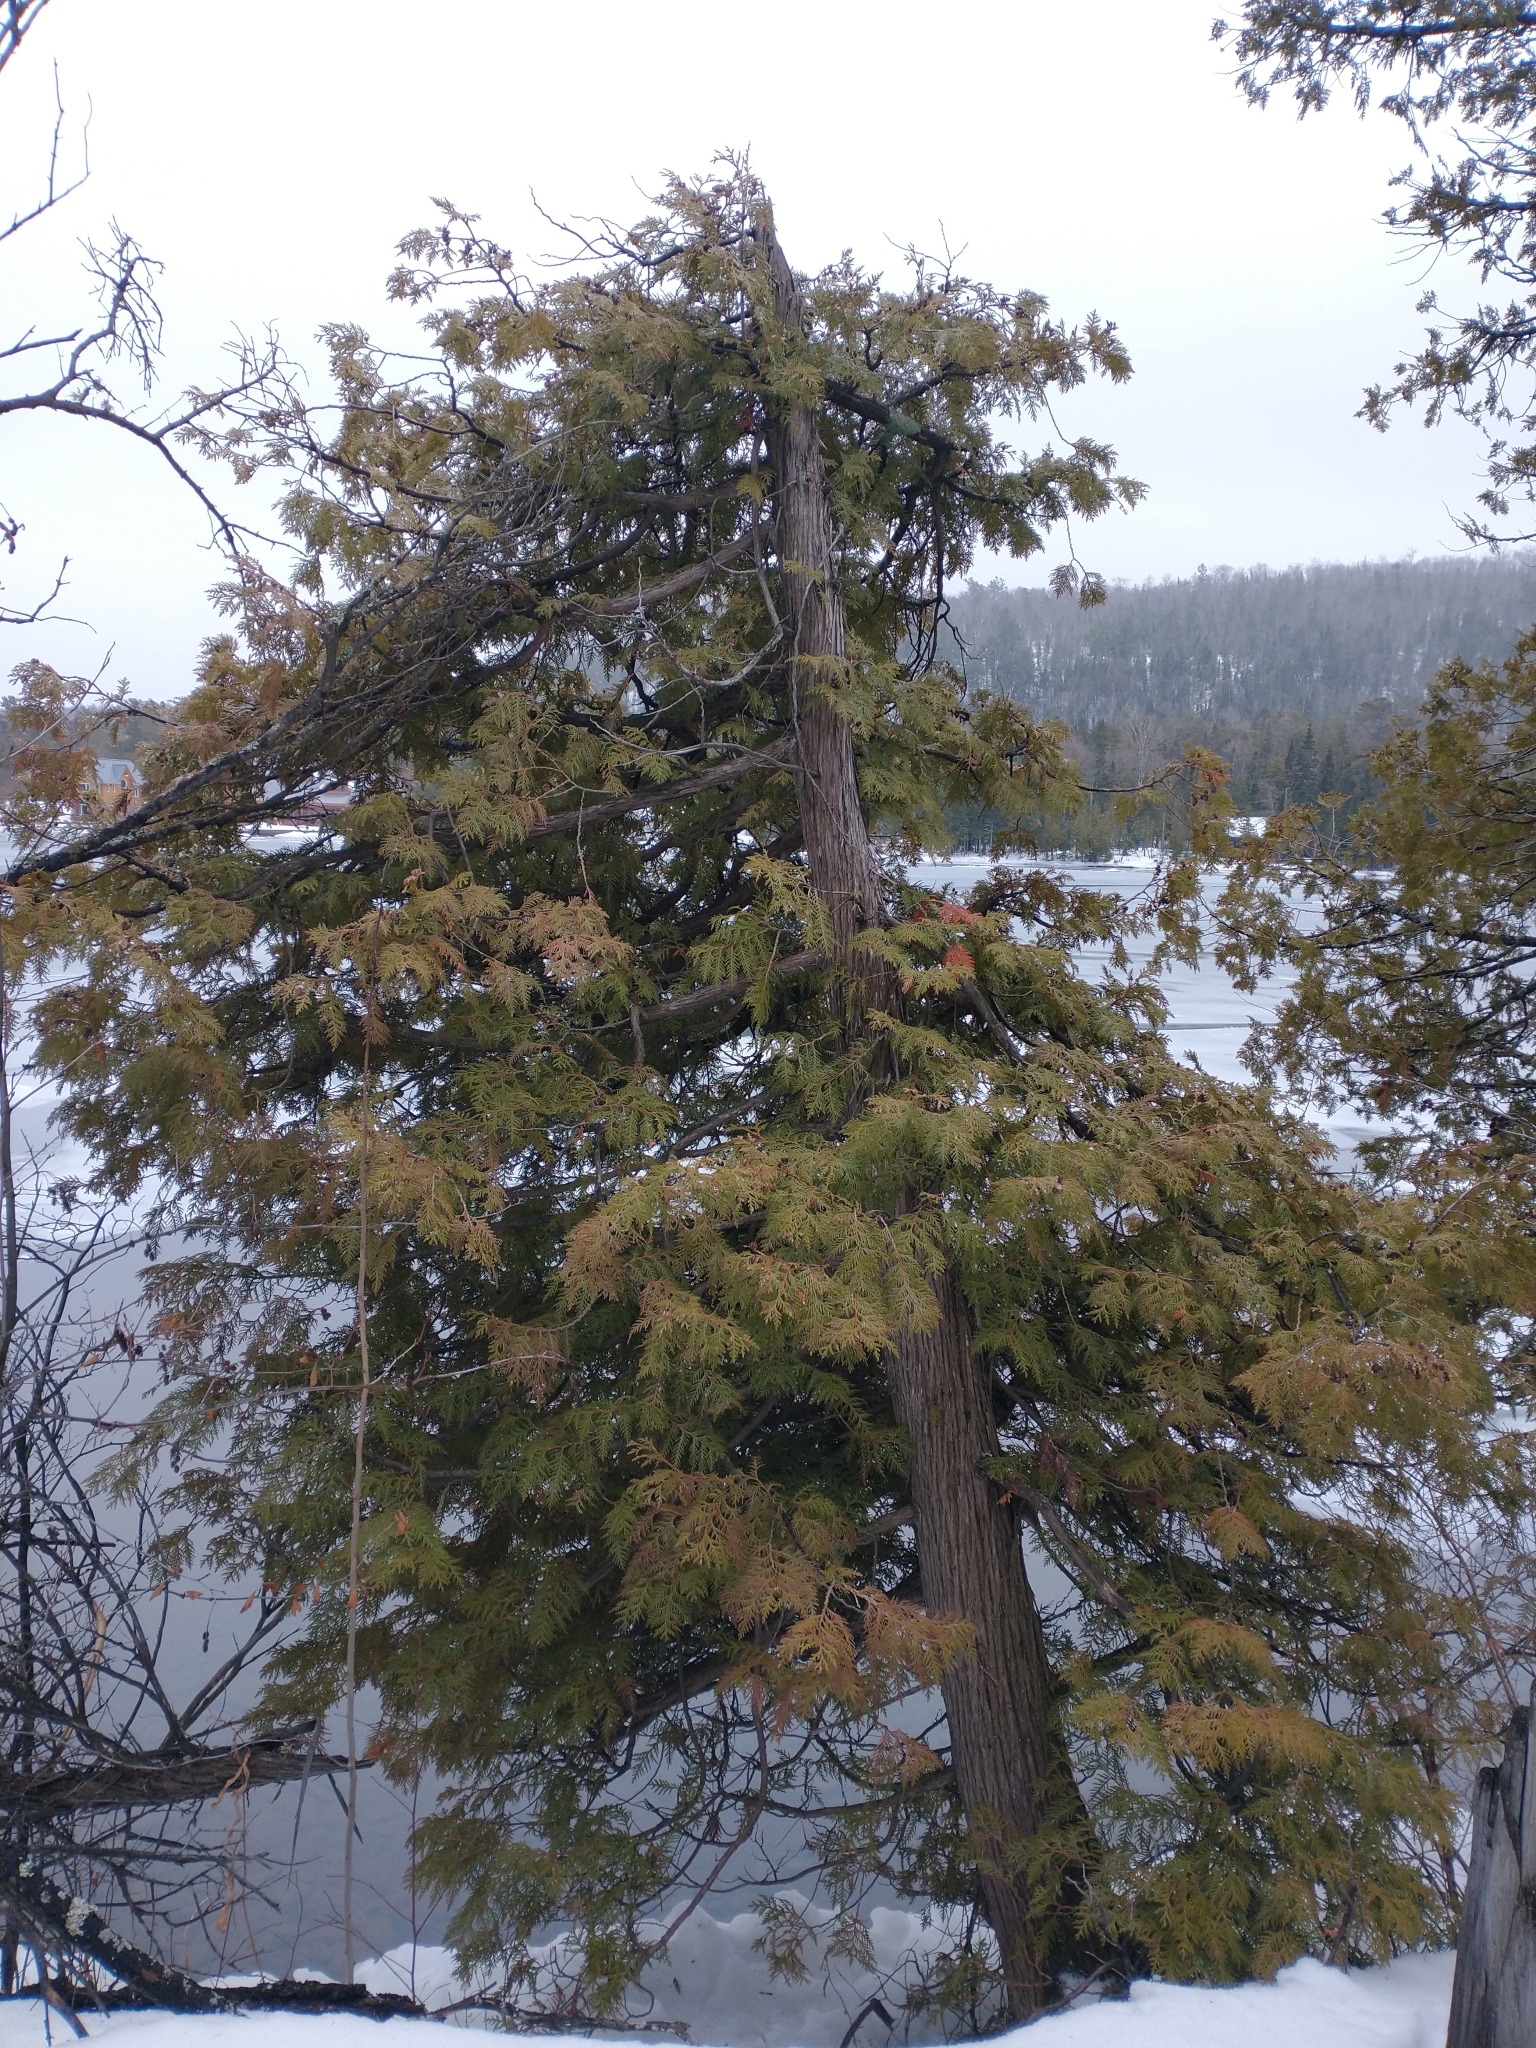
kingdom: Plantae
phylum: Tracheophyta
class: Pinopsida
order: Pinales
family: Cupressaceae
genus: Thuja
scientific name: Thuja occidentalis
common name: Northern white-cedar
